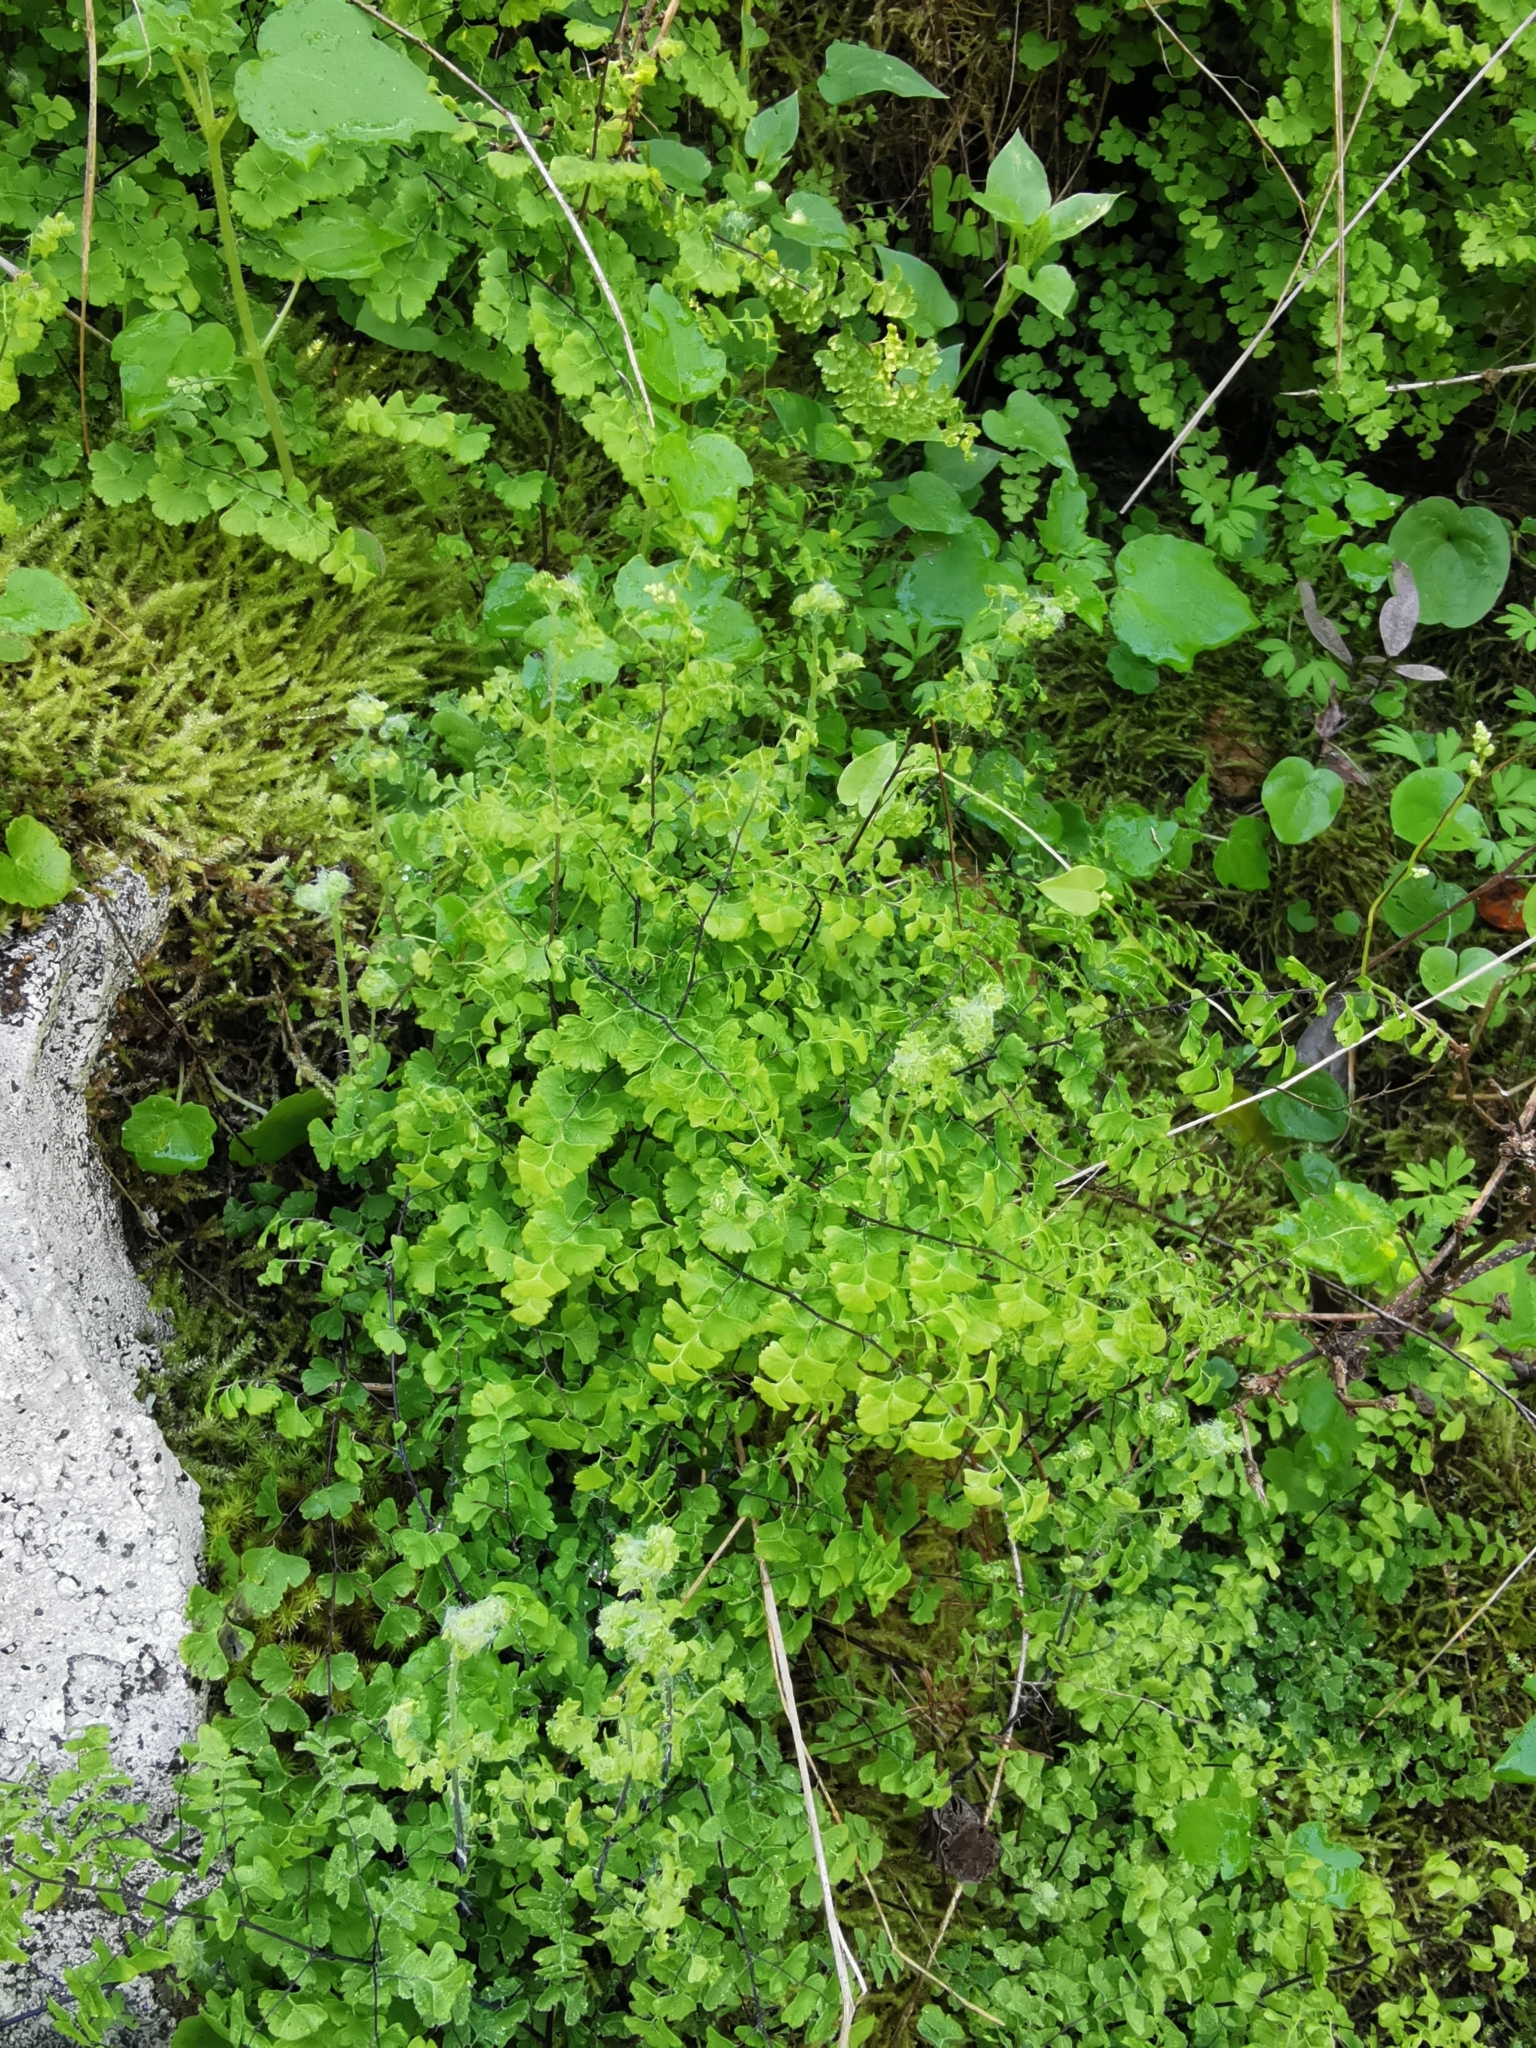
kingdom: Plantae
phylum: Tracheophyta
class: Polypodiopsida
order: Polypodiales
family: Pteridaceae
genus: Adiantum
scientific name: Adiantum excisum
